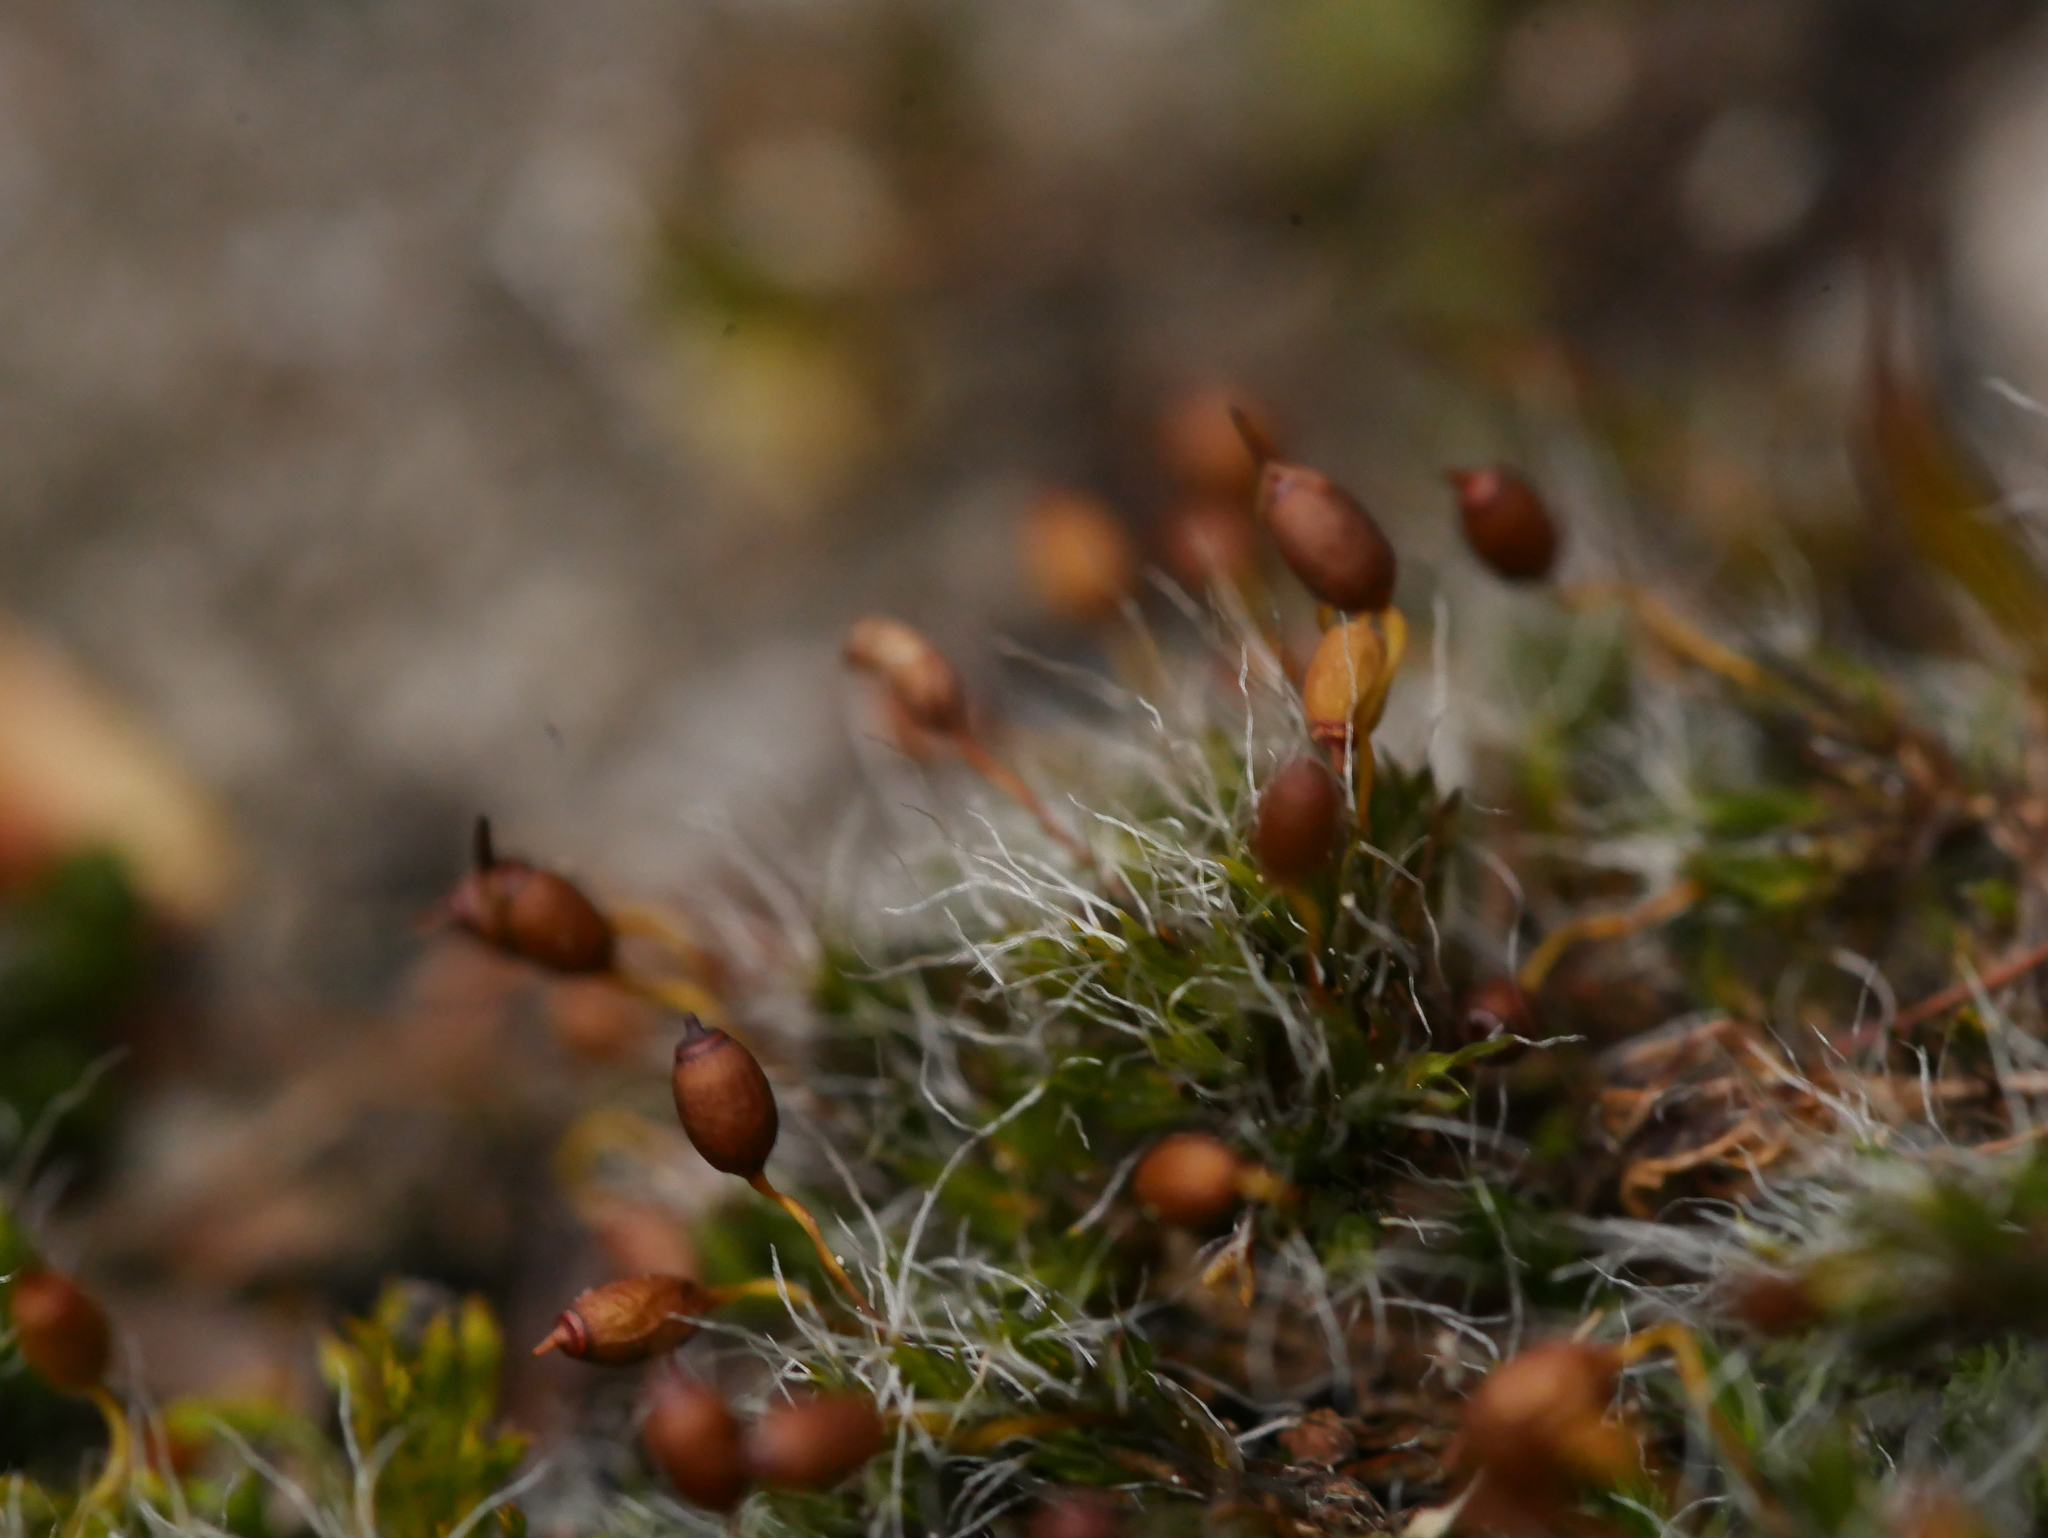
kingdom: Plantae
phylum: Bryophyta
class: Bryopsida
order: Grimmiales
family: Grimmiaceae
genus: Grimmia
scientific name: Grimmia pulvinata
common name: Grey-cushioned grimmia
